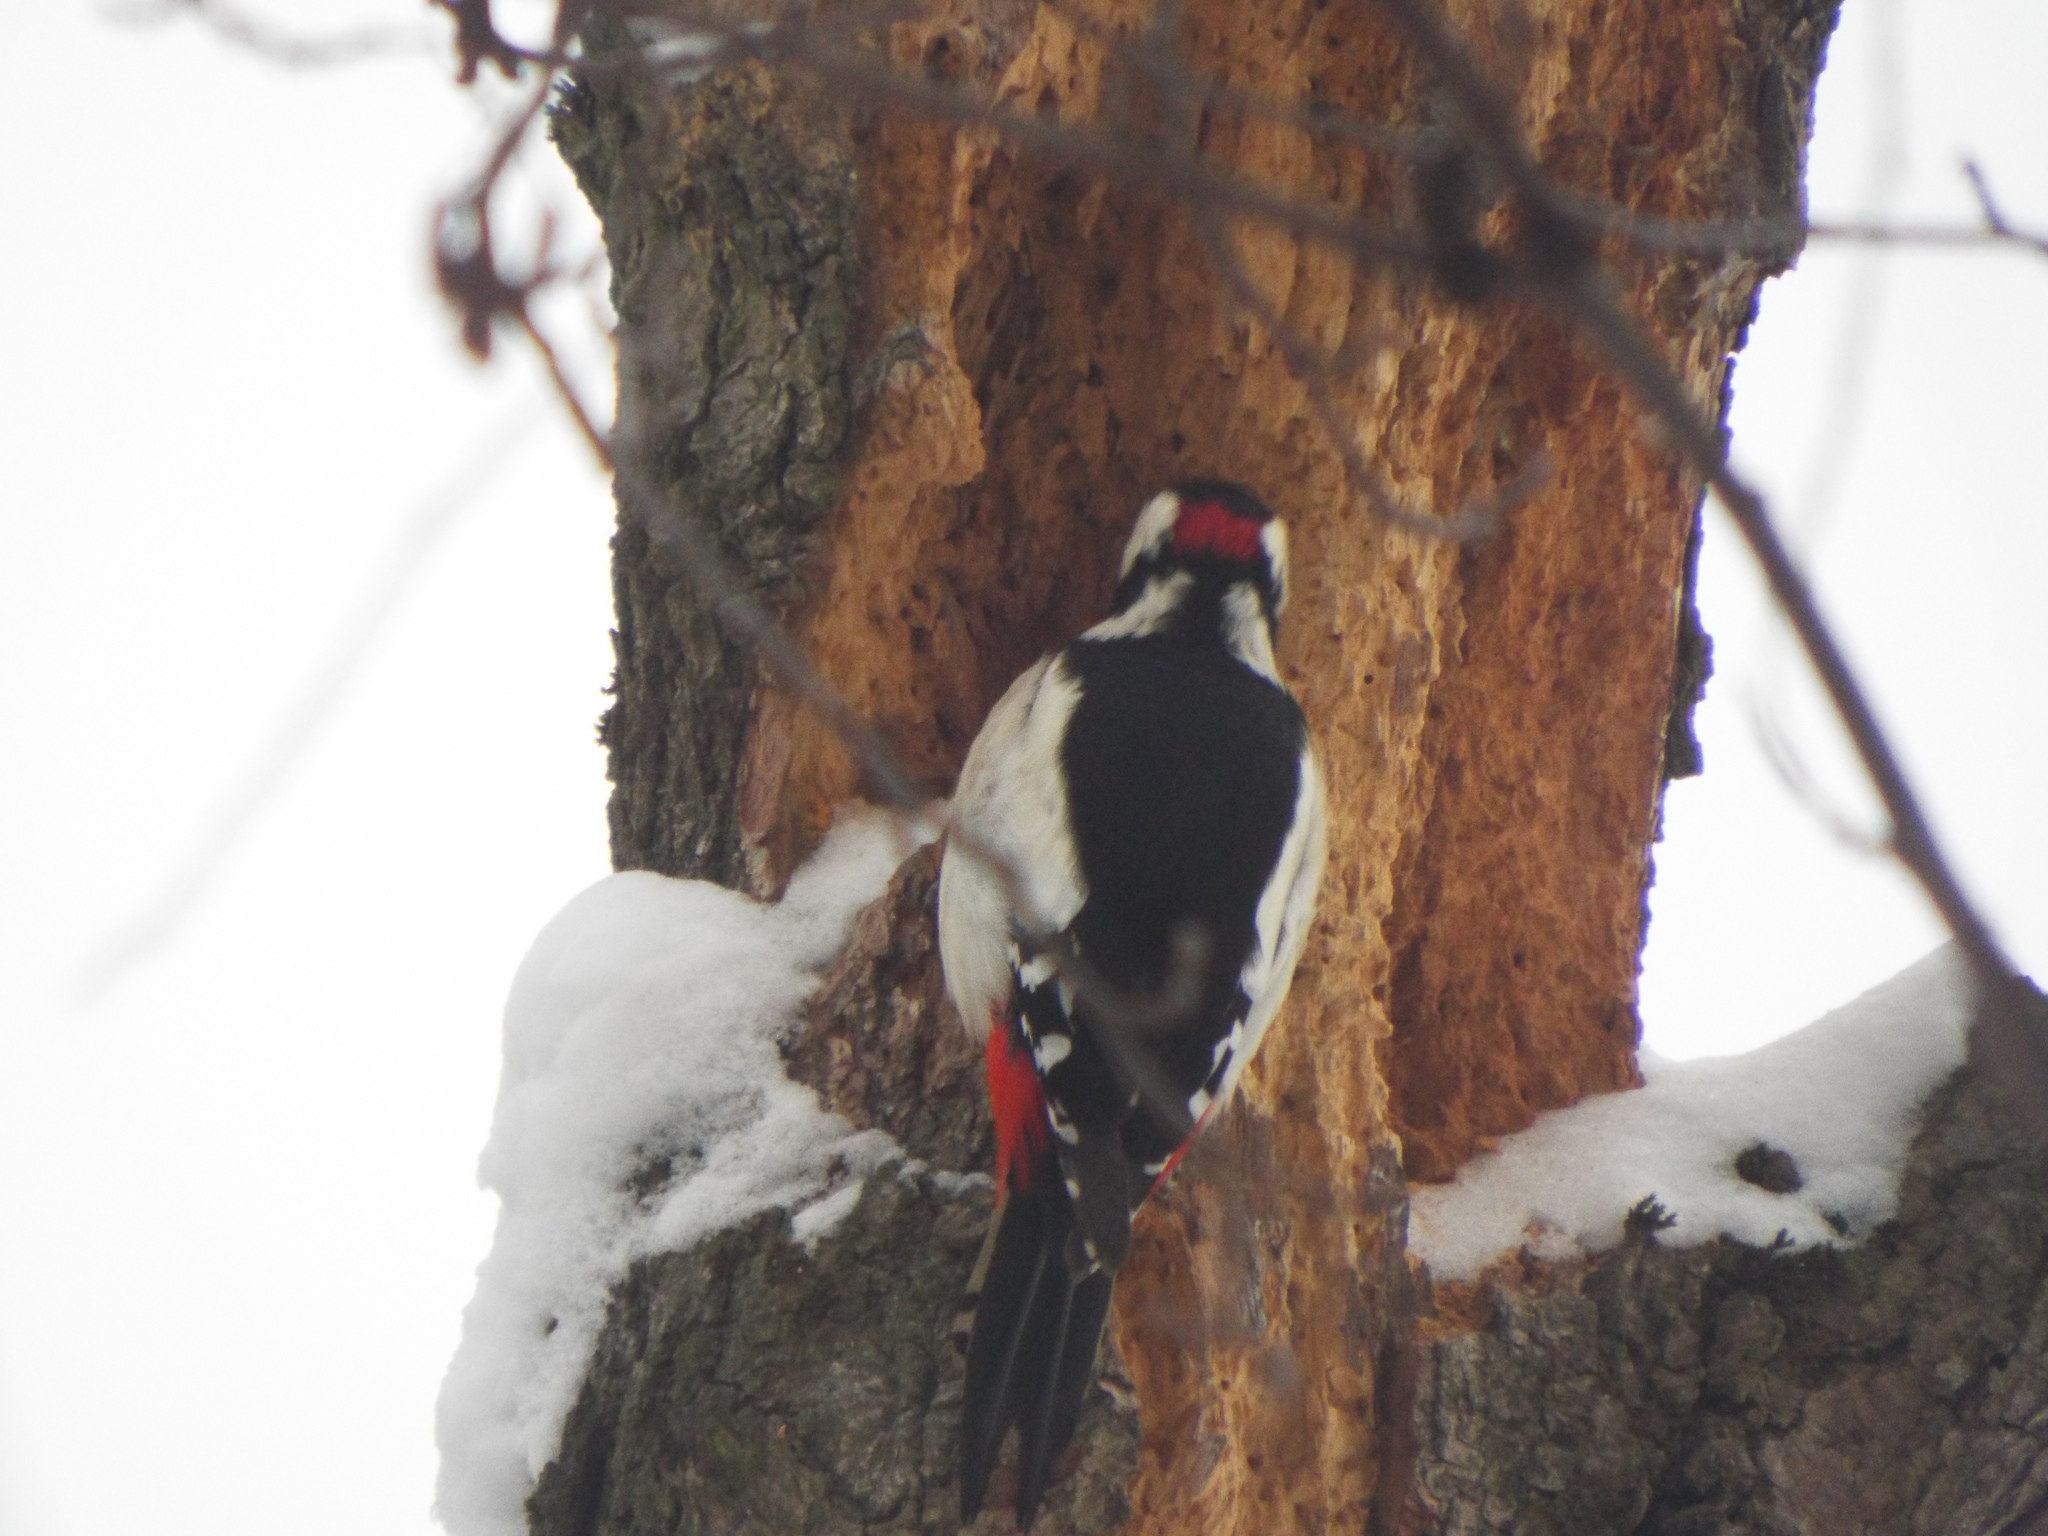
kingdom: Animalia
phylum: Chordata
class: Aves
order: Piciformes
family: Picidae
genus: Dendrocopos
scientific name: Dendrocopos major
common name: Great spotted woodpecker
